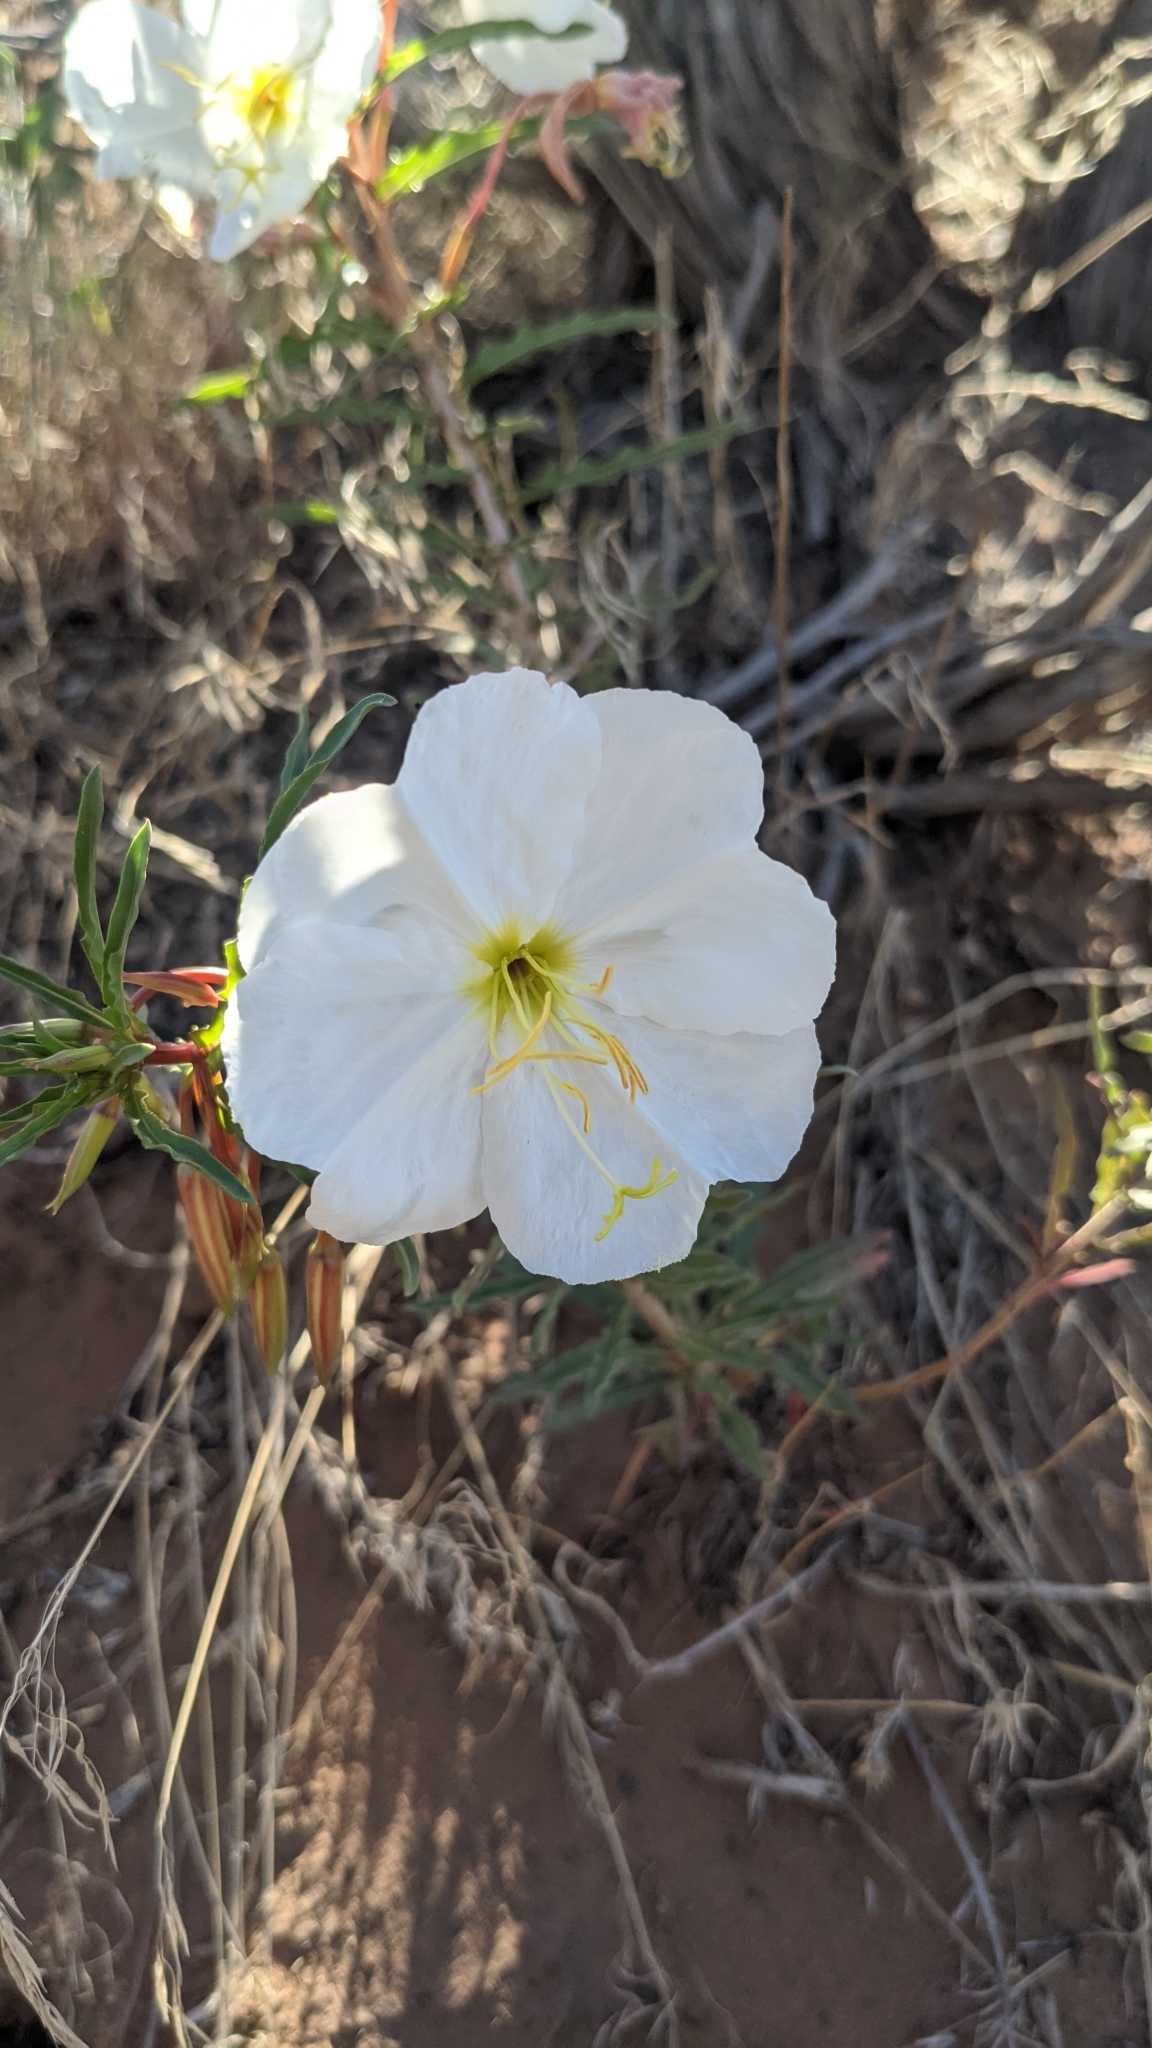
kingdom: Plantae
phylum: Tracheophyta
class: Magnoliopsida
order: Myrtales
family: Onagraceae
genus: Oenothera
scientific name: Oenothera pallida
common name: Pale evening-primrose
